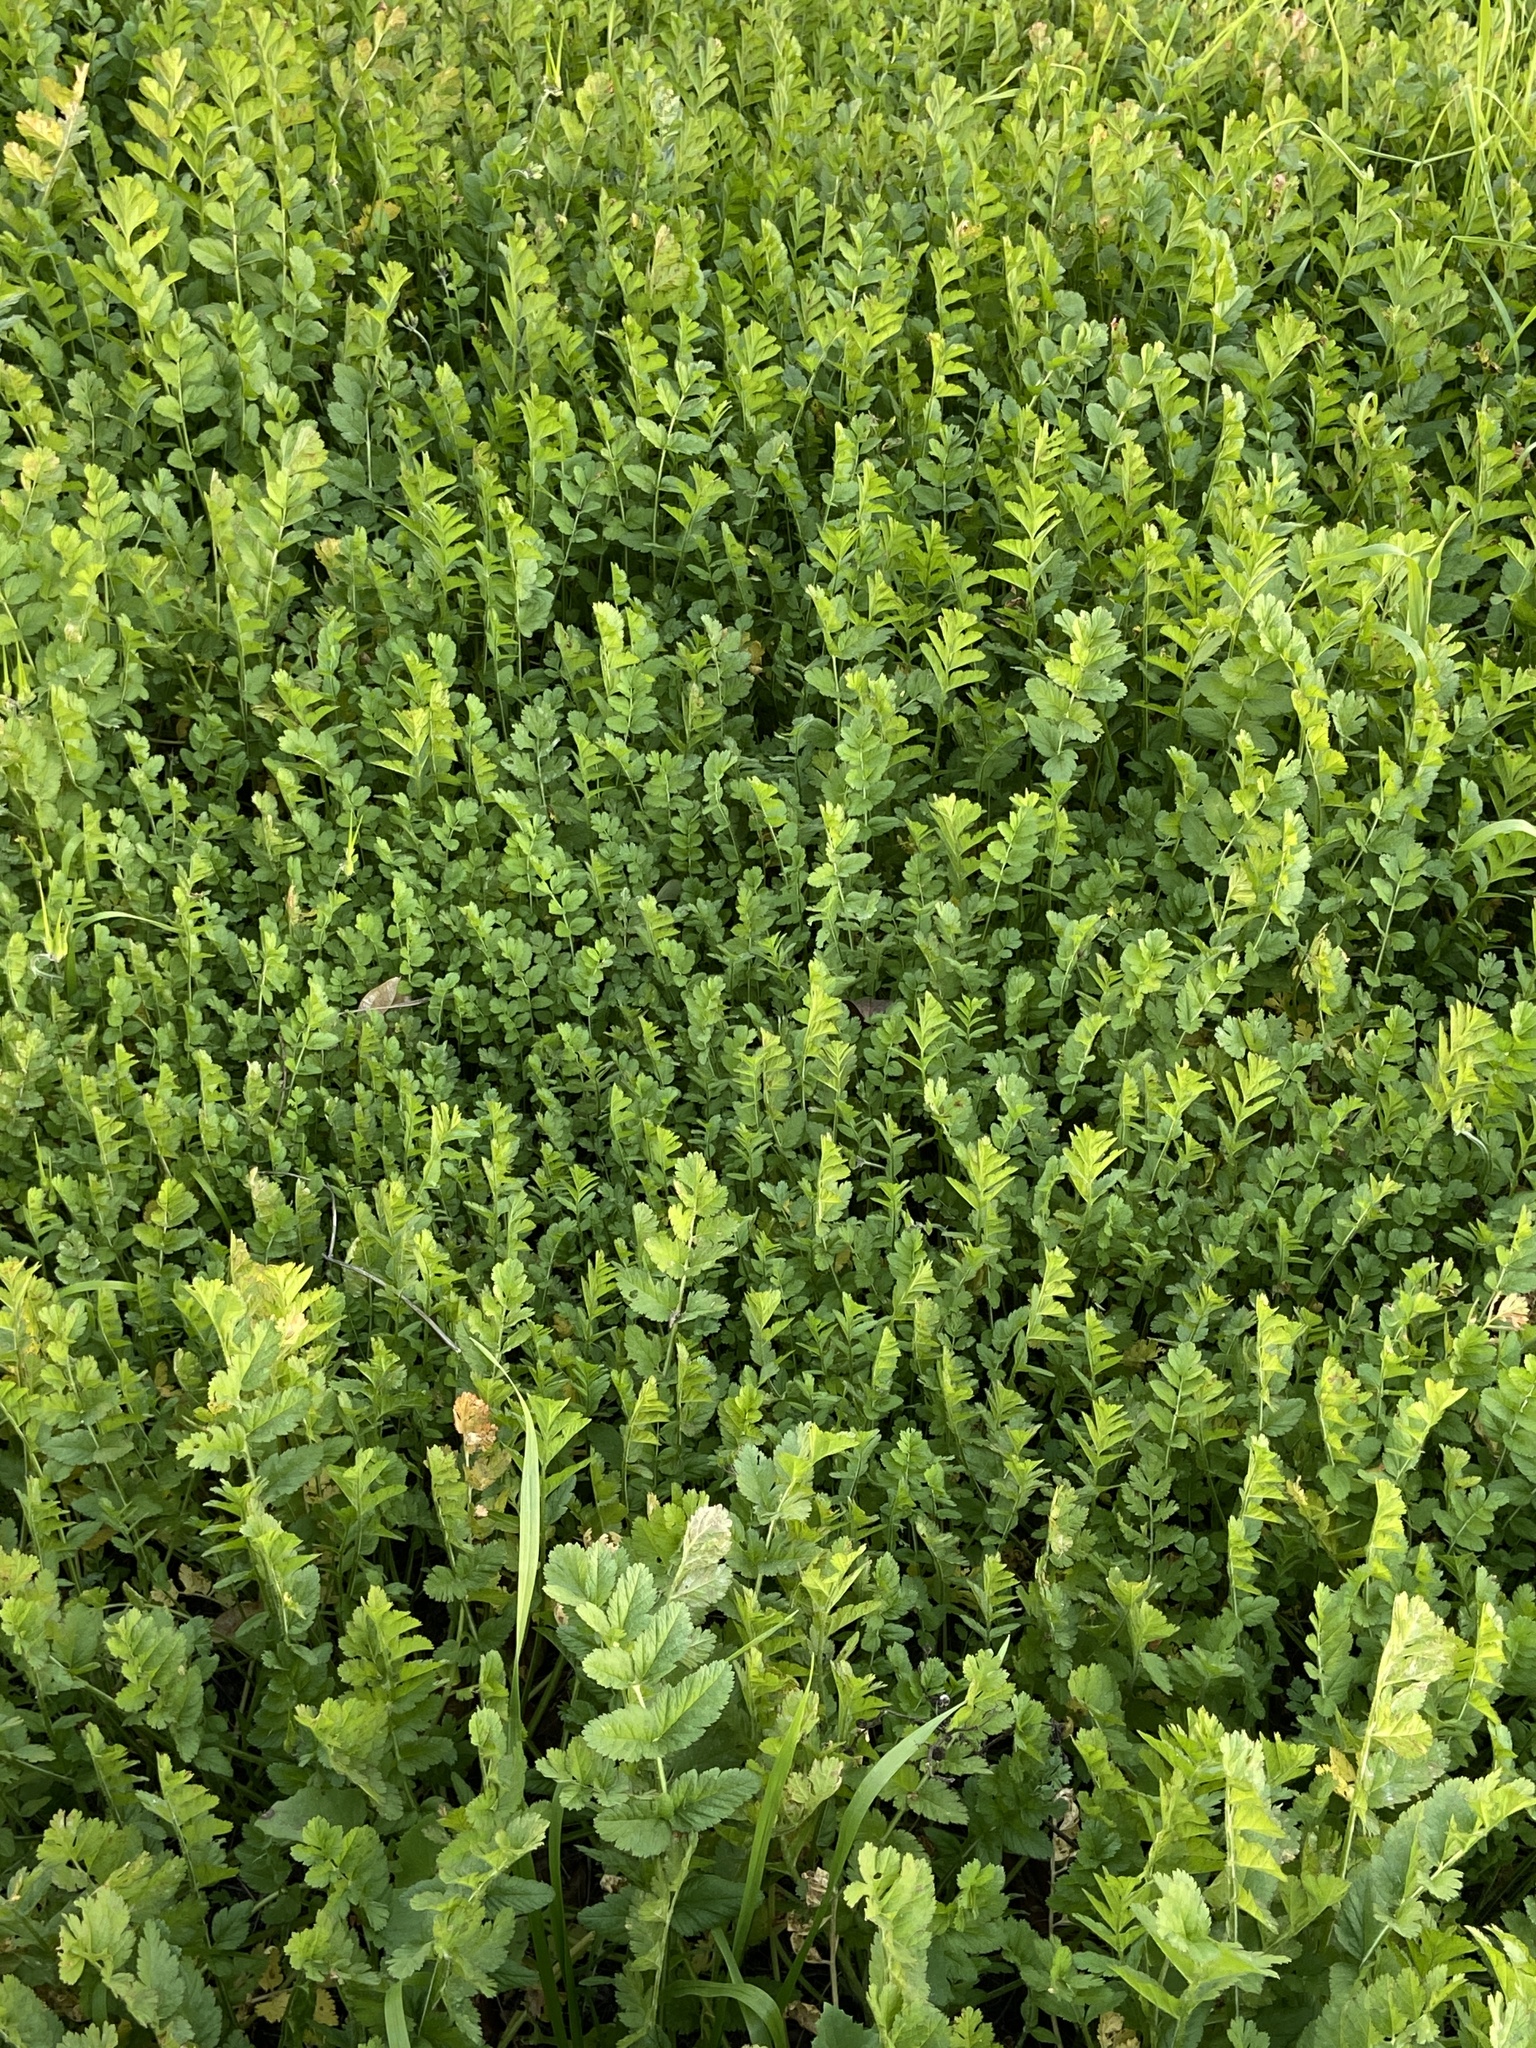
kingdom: Plantae
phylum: Tracheophyta
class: Magnoliopsida
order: Geraniales
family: Geraniaceae
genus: Erodium
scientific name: Erodium moschatum
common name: Musk stork's-bill
